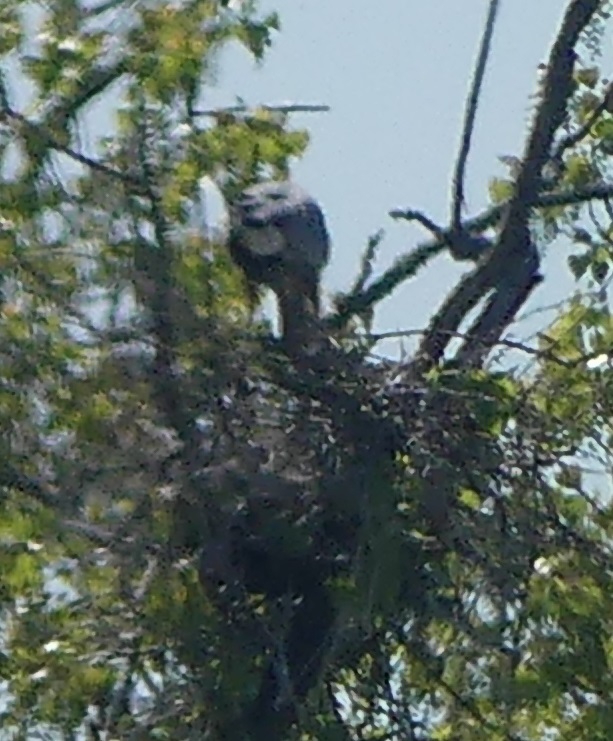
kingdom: Animalia
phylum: Chordata
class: Aves
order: Accipitriformes
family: Accipitridae
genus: Haliaeetus
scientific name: Haliaeetus leucocephalus
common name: Bald eagle
